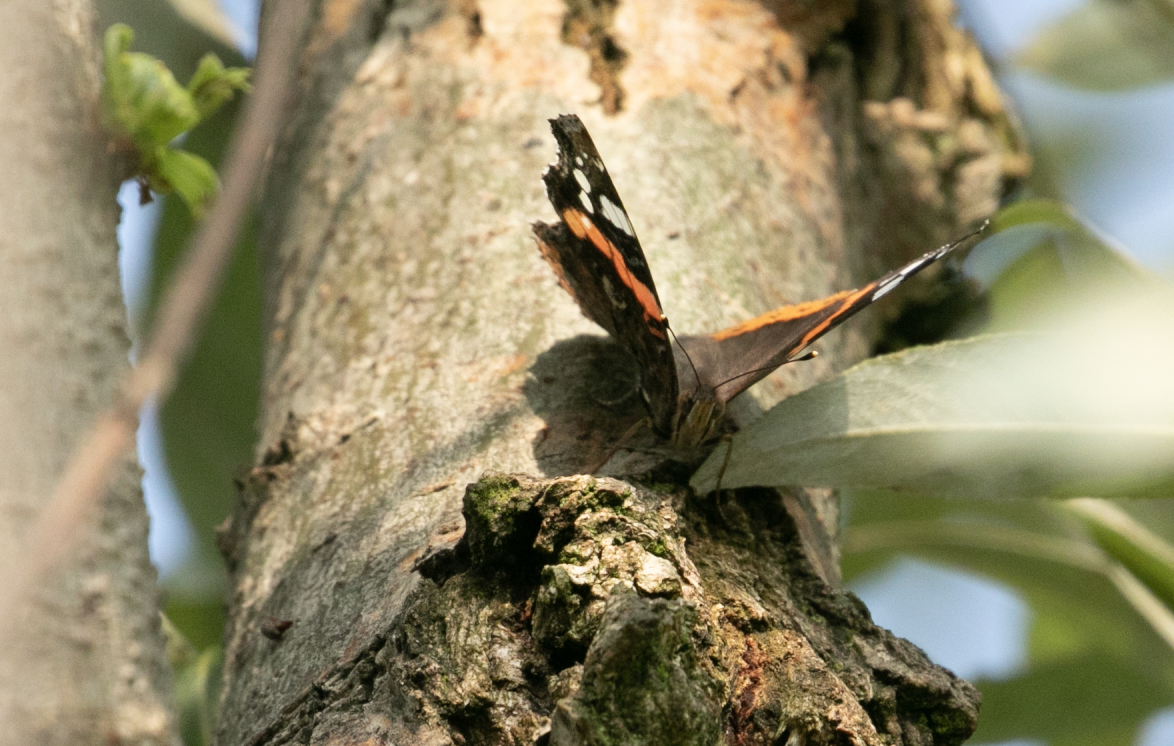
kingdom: Animalia
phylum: Arthropoda
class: Insecta
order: Lepidoptera
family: Nymphalidae
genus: Vanessa
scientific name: Vanessa atalanta
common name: Red admiral
